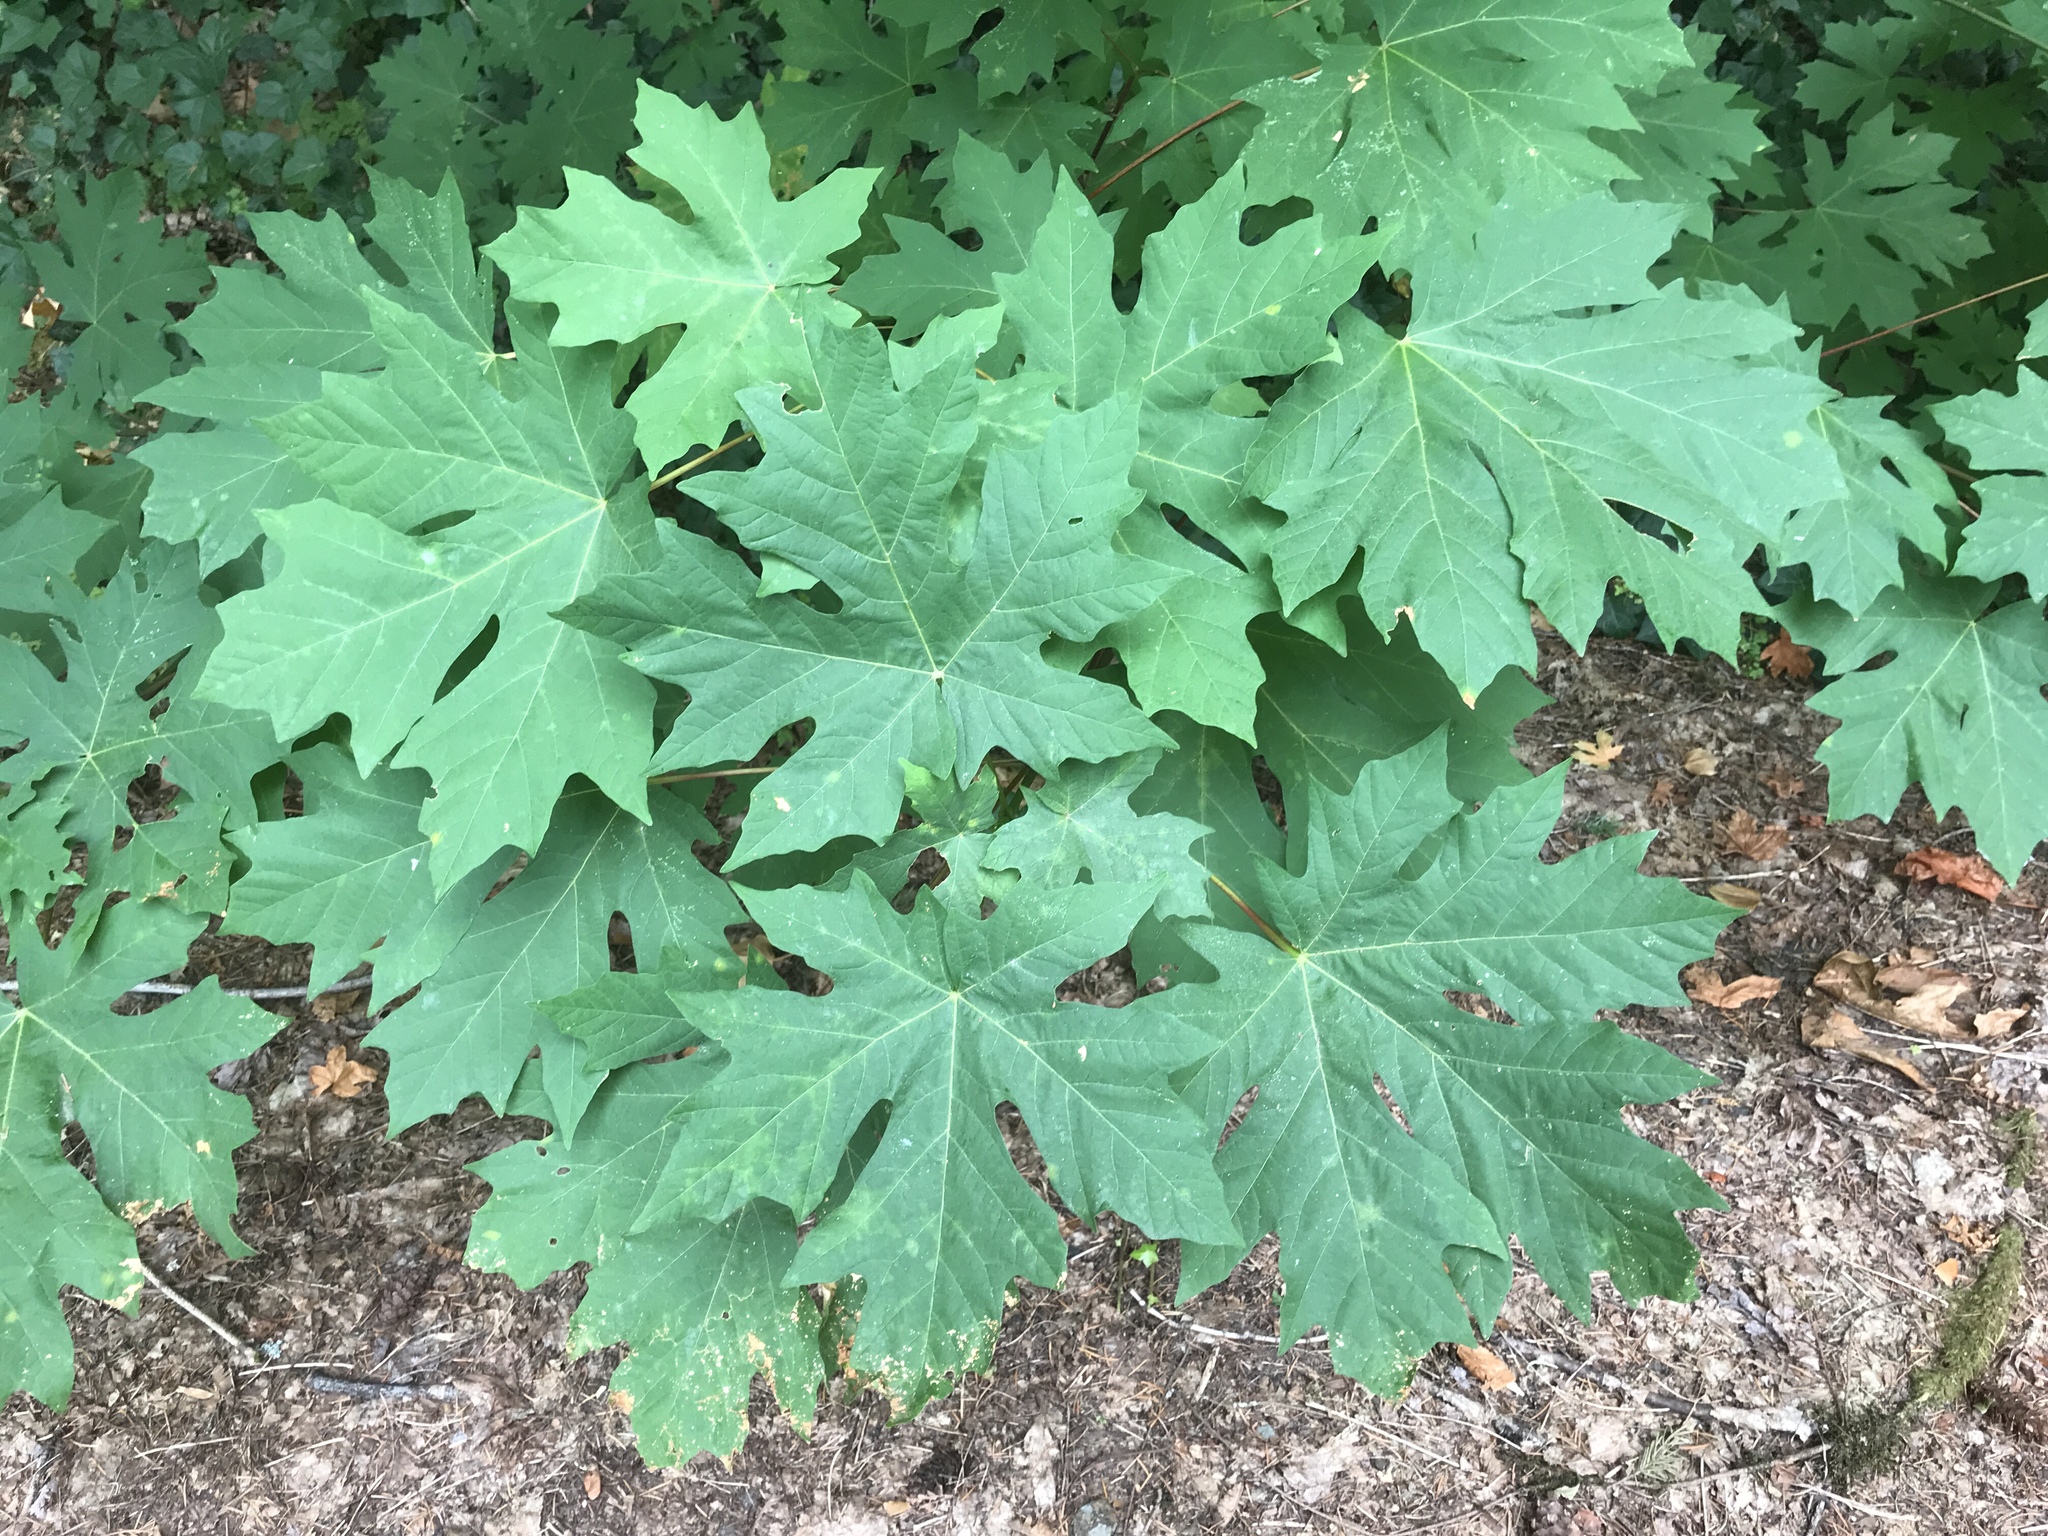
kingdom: Plantae
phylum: Tracheophyta
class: Magnoliopsida
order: Sapindales
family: Sapindaceae
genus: Acer
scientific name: Acer macrophyllum
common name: Oregon maple
